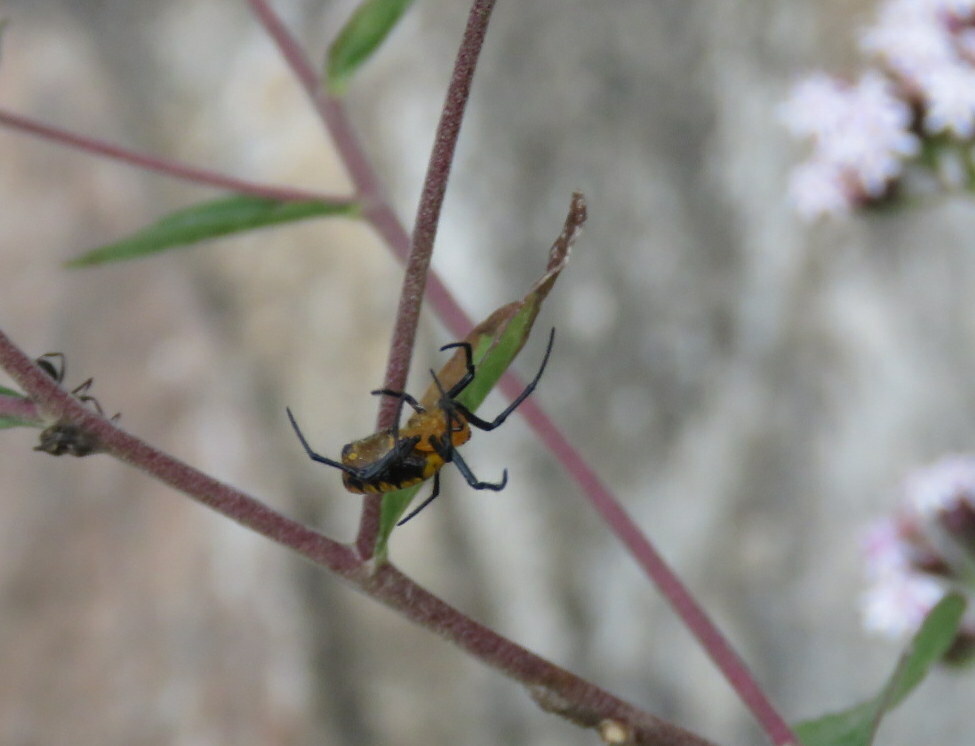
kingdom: Animalia
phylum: Arthropoda
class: Arachnida
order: Araneae
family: Araneidae
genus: Alpaida
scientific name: Alpaida latro
